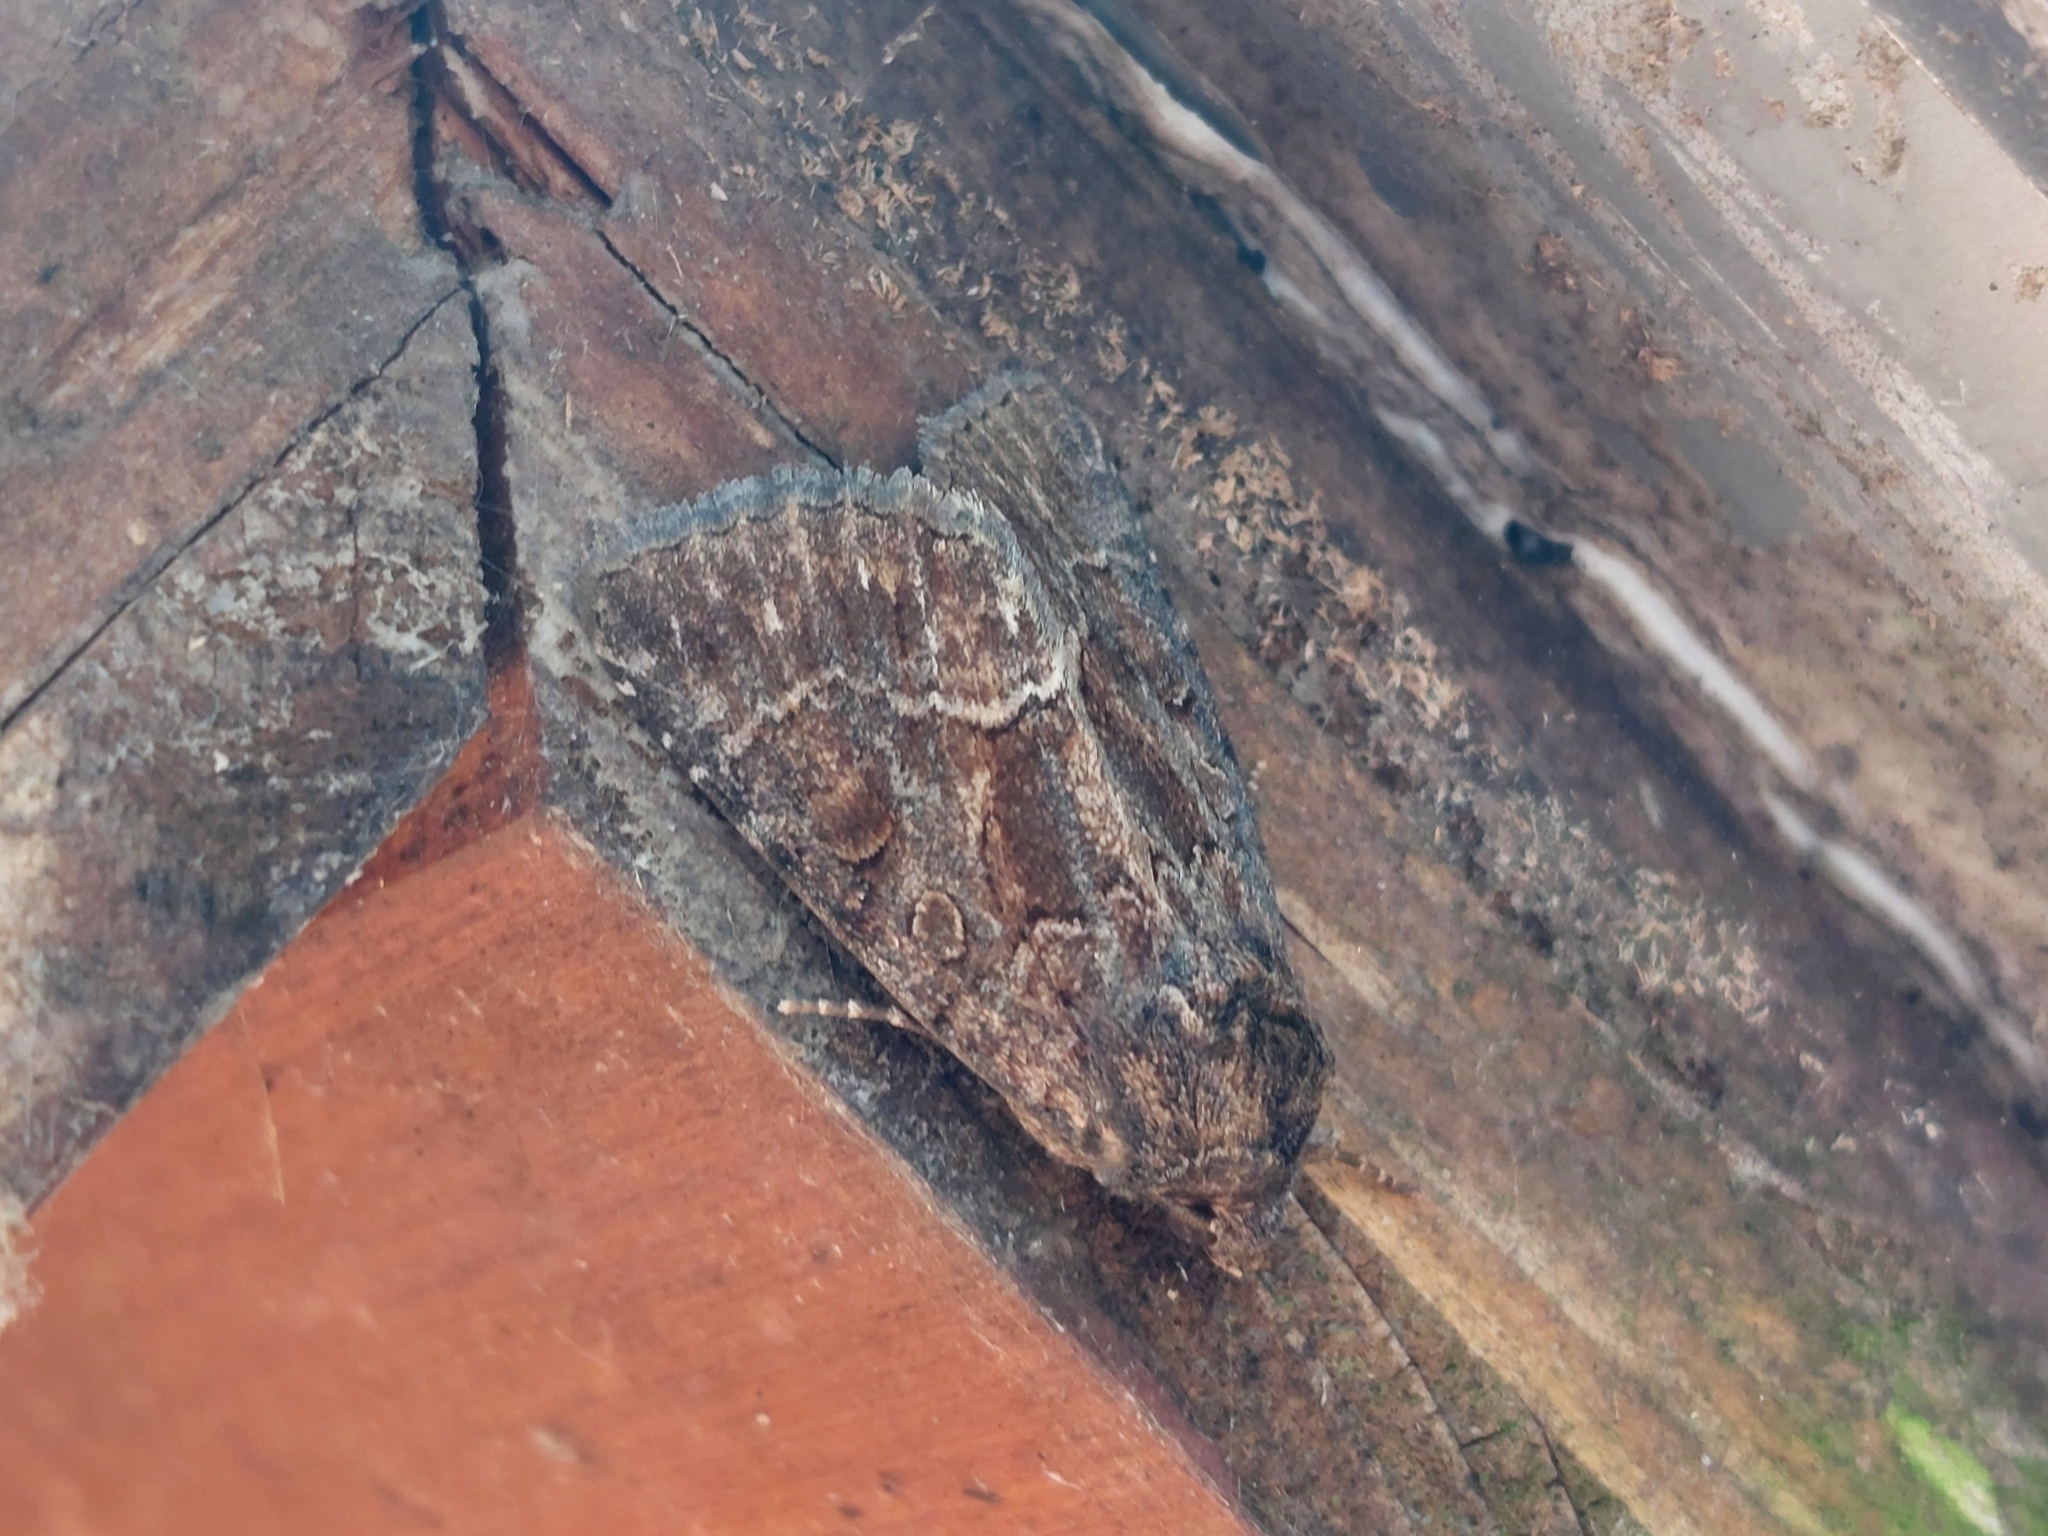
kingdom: Animalia
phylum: Arthropoda
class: Insecta
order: Lepidoptera
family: Noctuidae
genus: Thalpophila
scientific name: Thalpophila matura
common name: Straw underwing
